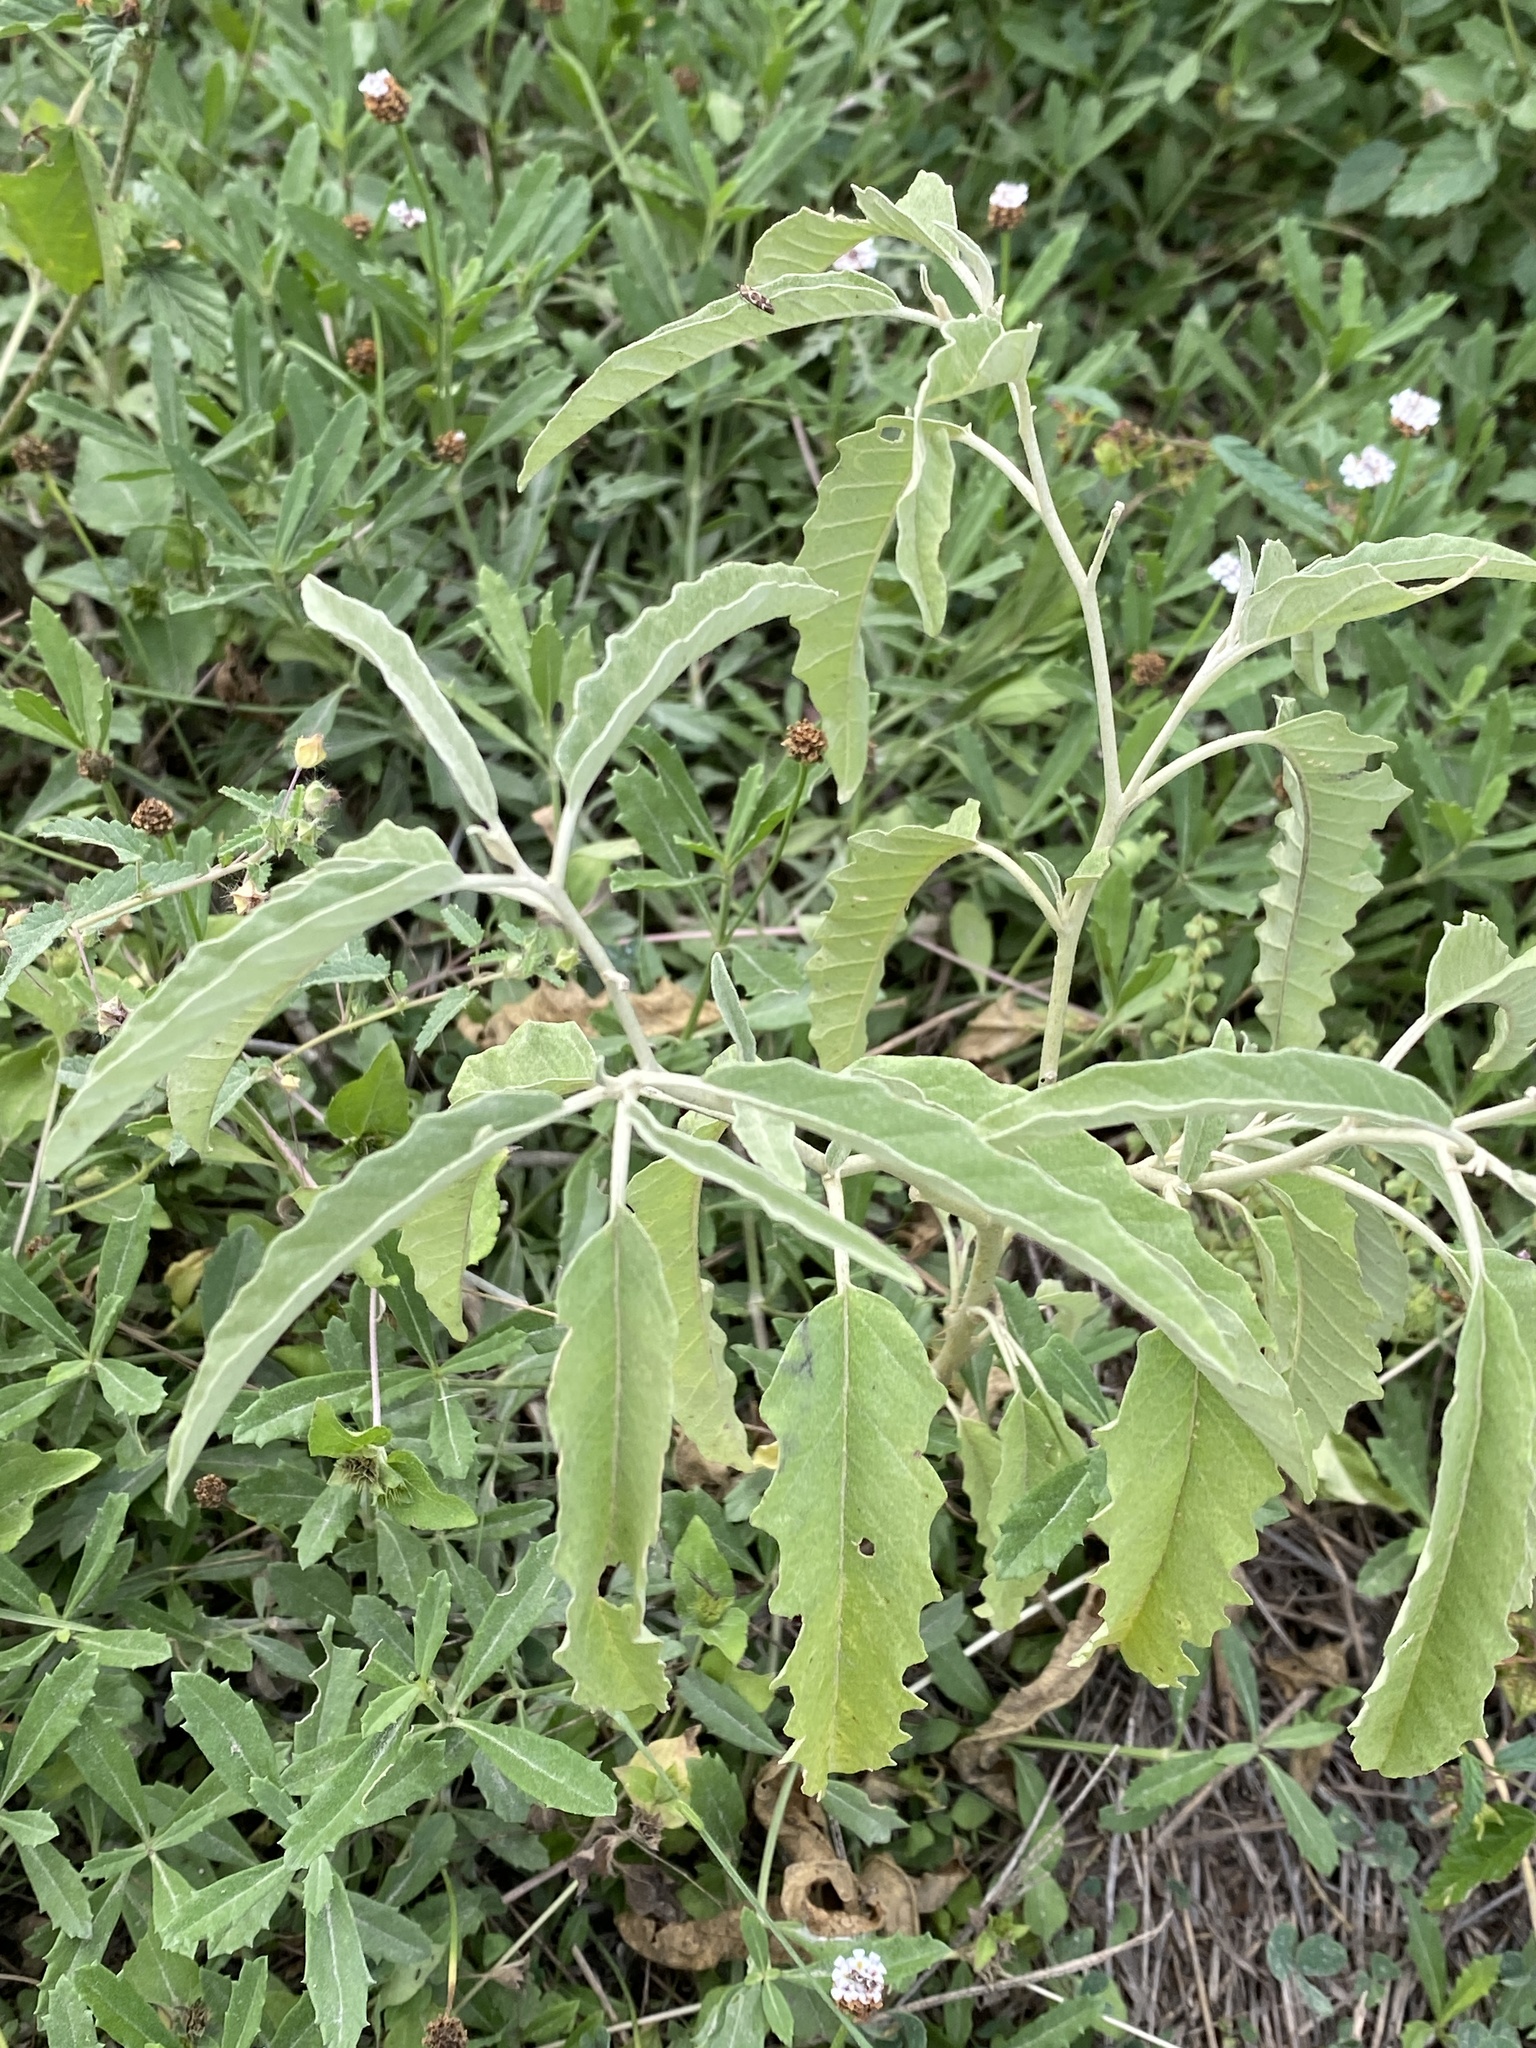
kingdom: Plantae
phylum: Tracheophyta
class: Magnoliopsida
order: Solanales
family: Solanaceae
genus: Solanum
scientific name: Solanum elaeagnifolium
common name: Silverleaf nightshade
